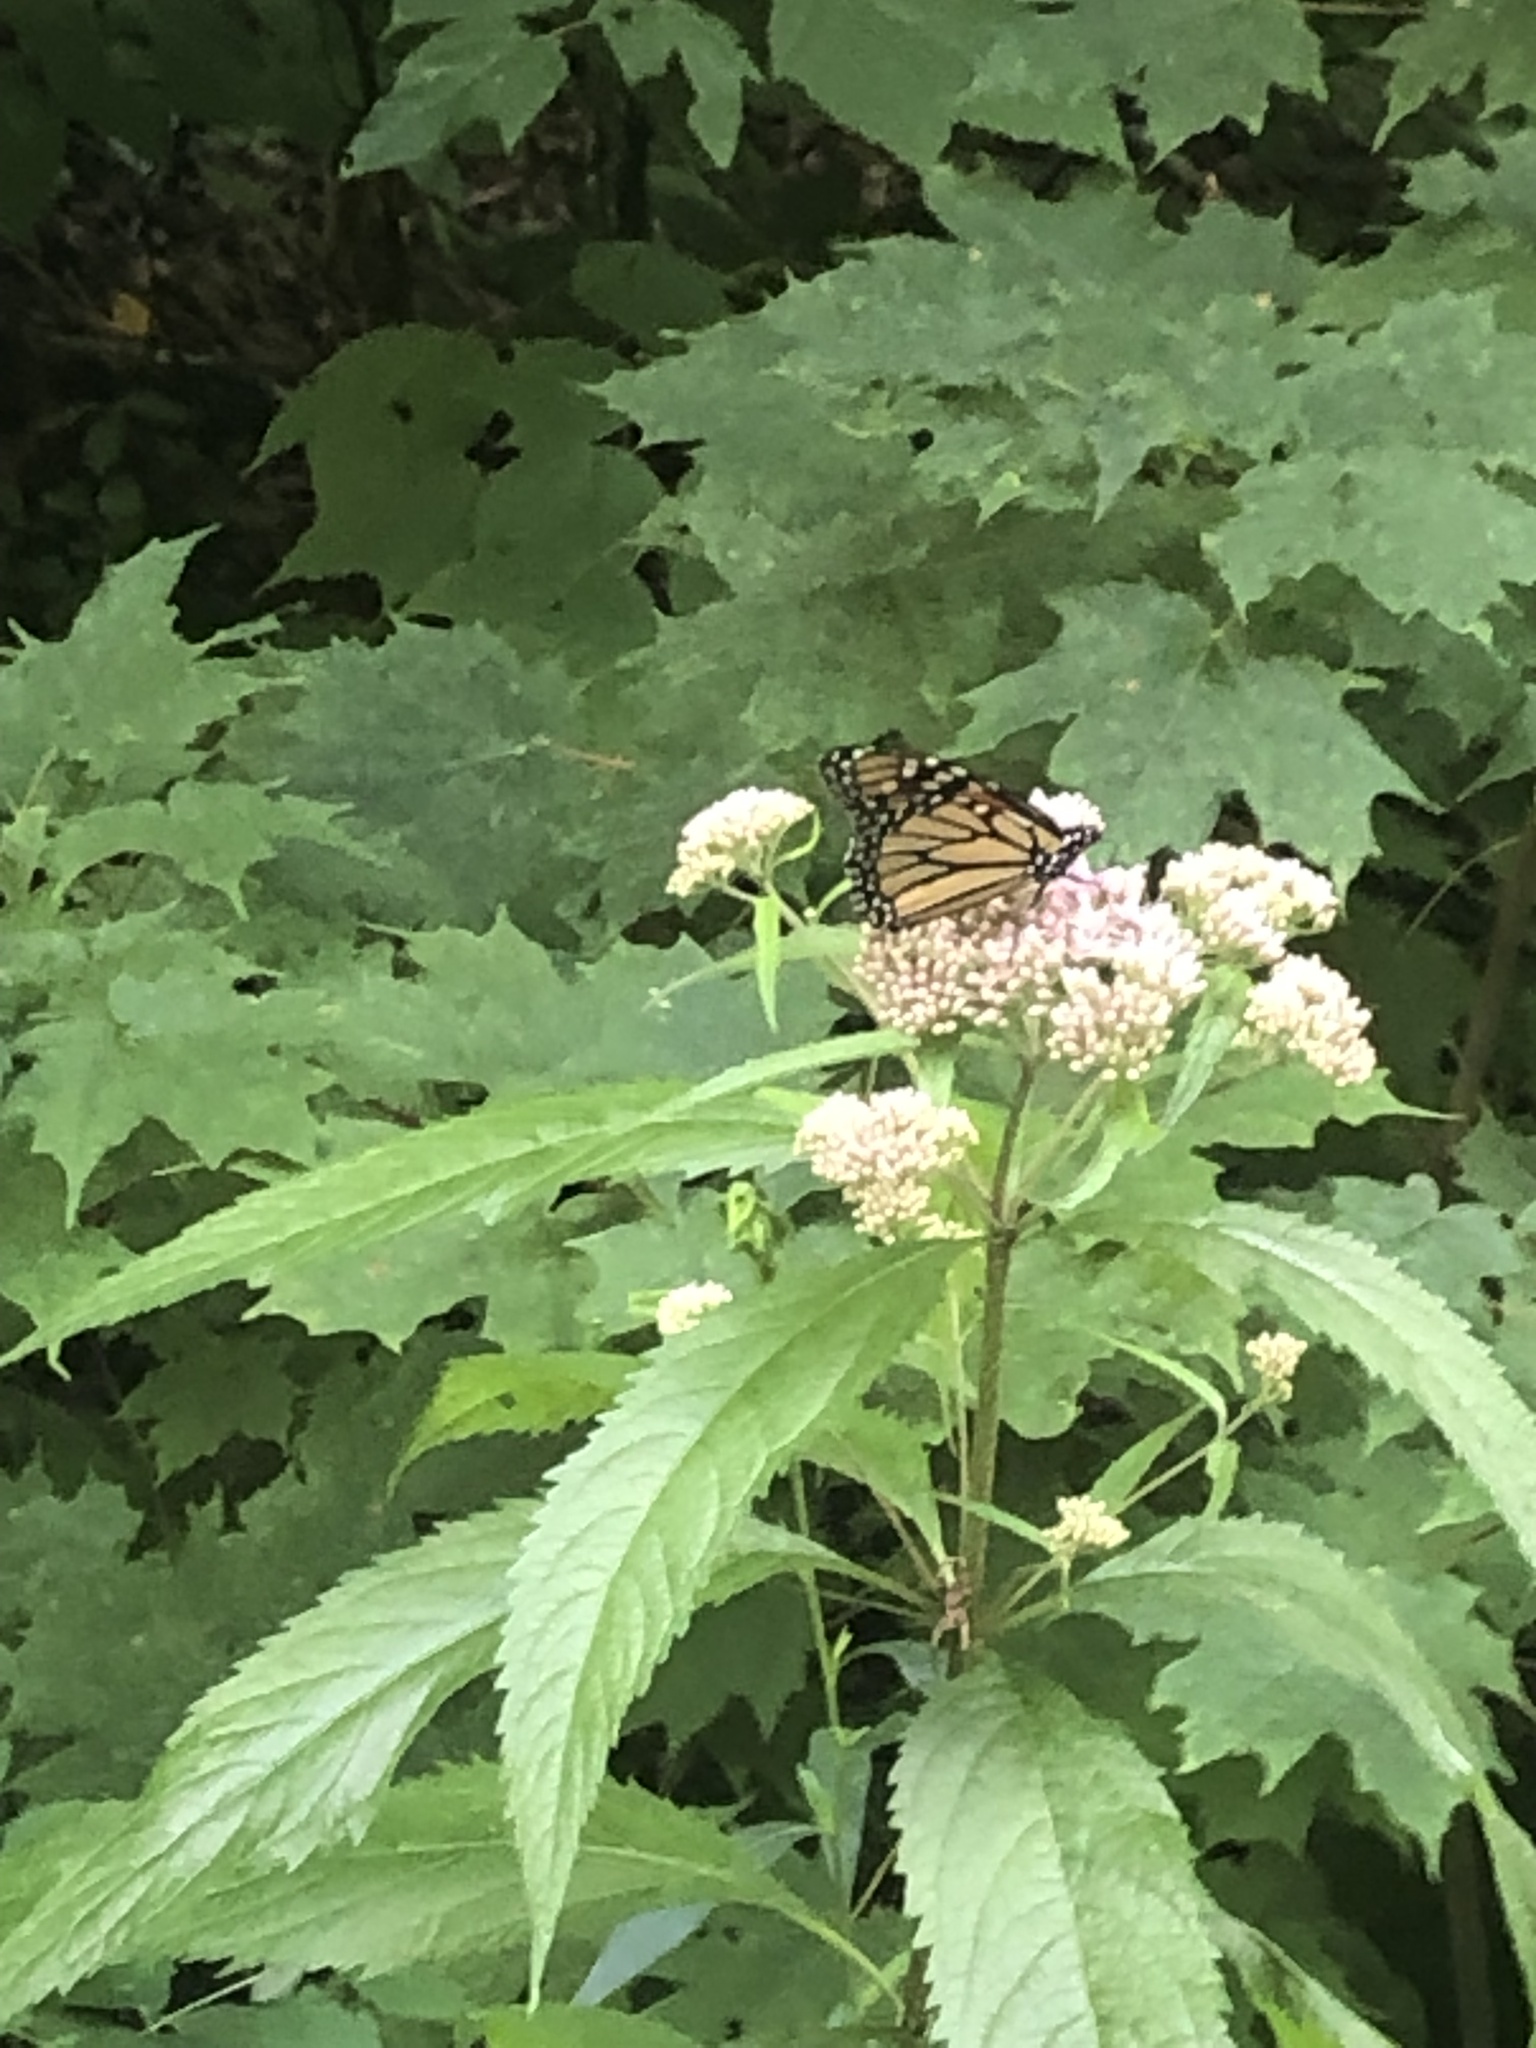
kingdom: Animalia
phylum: Arthropoda
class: Insecta
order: Lepidoptera
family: Nymphalidae
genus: Danaus
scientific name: Danaus plexippus
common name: Monarch
